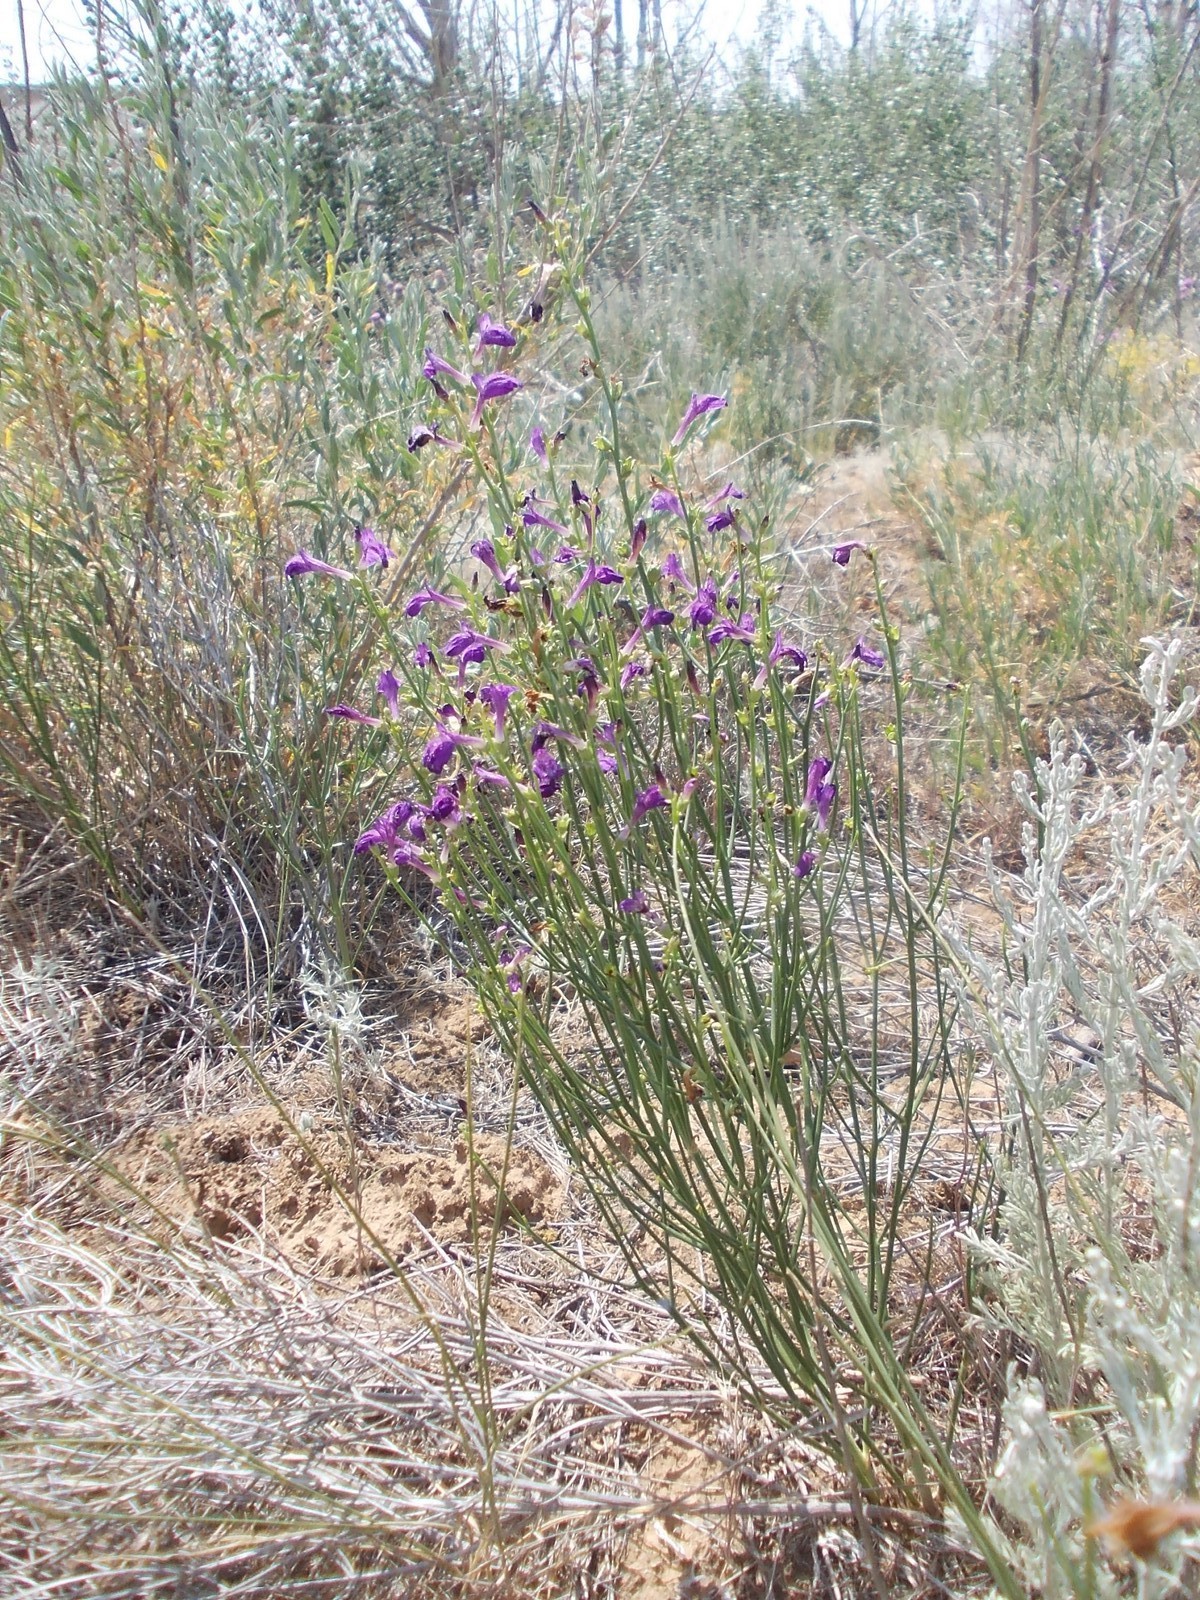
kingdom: Plantae
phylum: Tracheophyta
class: Magnoliopsida
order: Lamiales
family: Mazaceae
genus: Dodartia
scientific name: Dodartia orientalis
